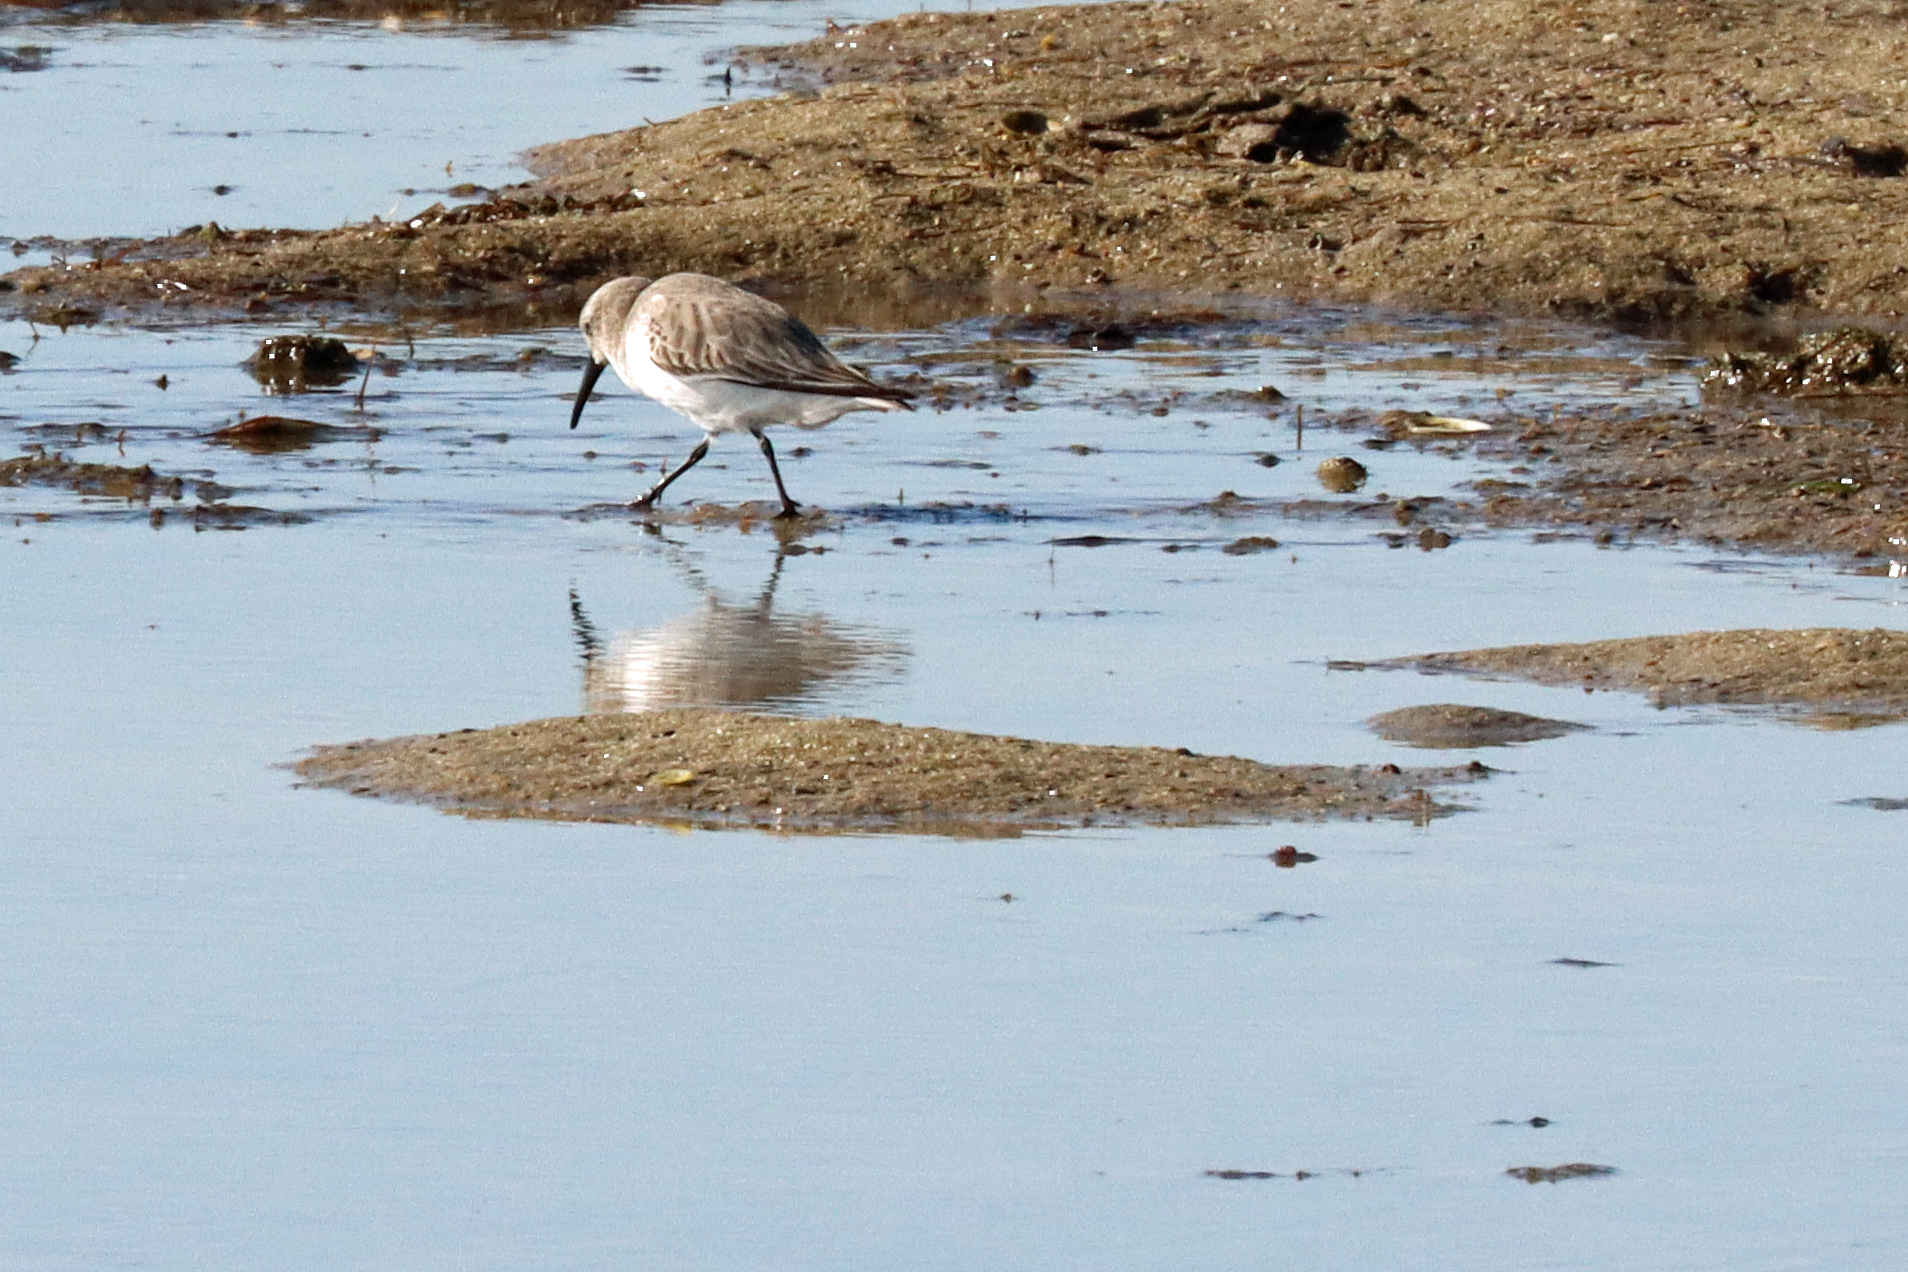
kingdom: Animalia
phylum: Chordata
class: Aves
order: Charadriiformes
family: Scolopacidae
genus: Calidris
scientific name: Calidris alpina
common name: Dunlin
